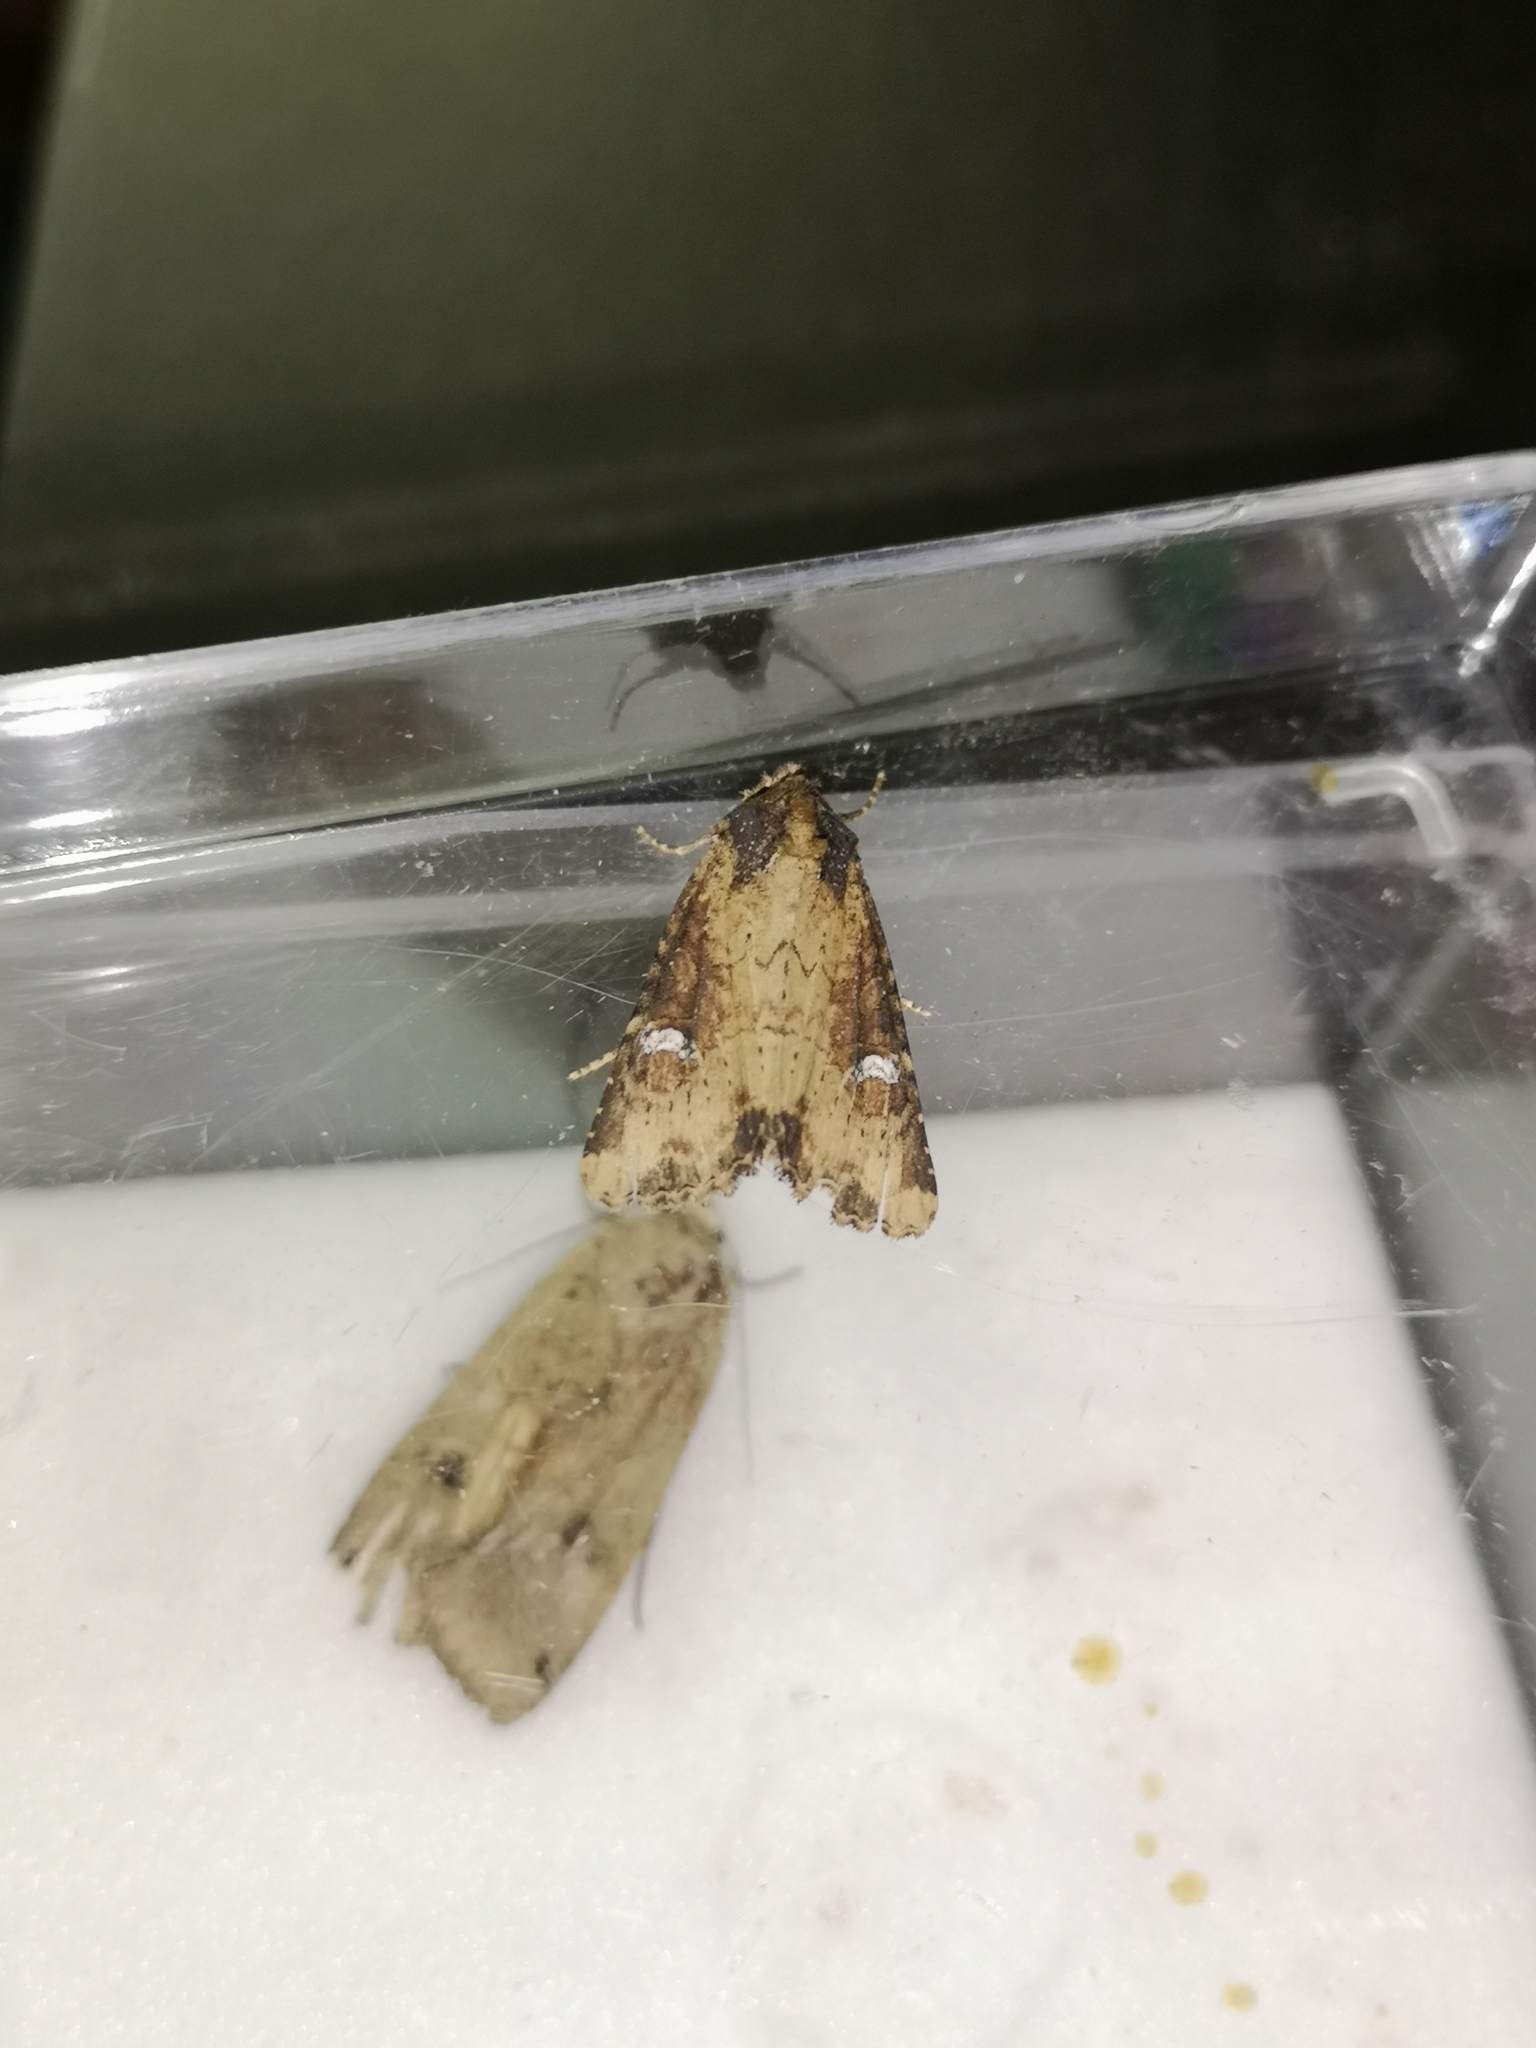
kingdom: Animalia
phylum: Arthropoda
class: Insecta
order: Lepidoptera
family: Noctuidae
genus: Mesapamea
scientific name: Mesapamea
